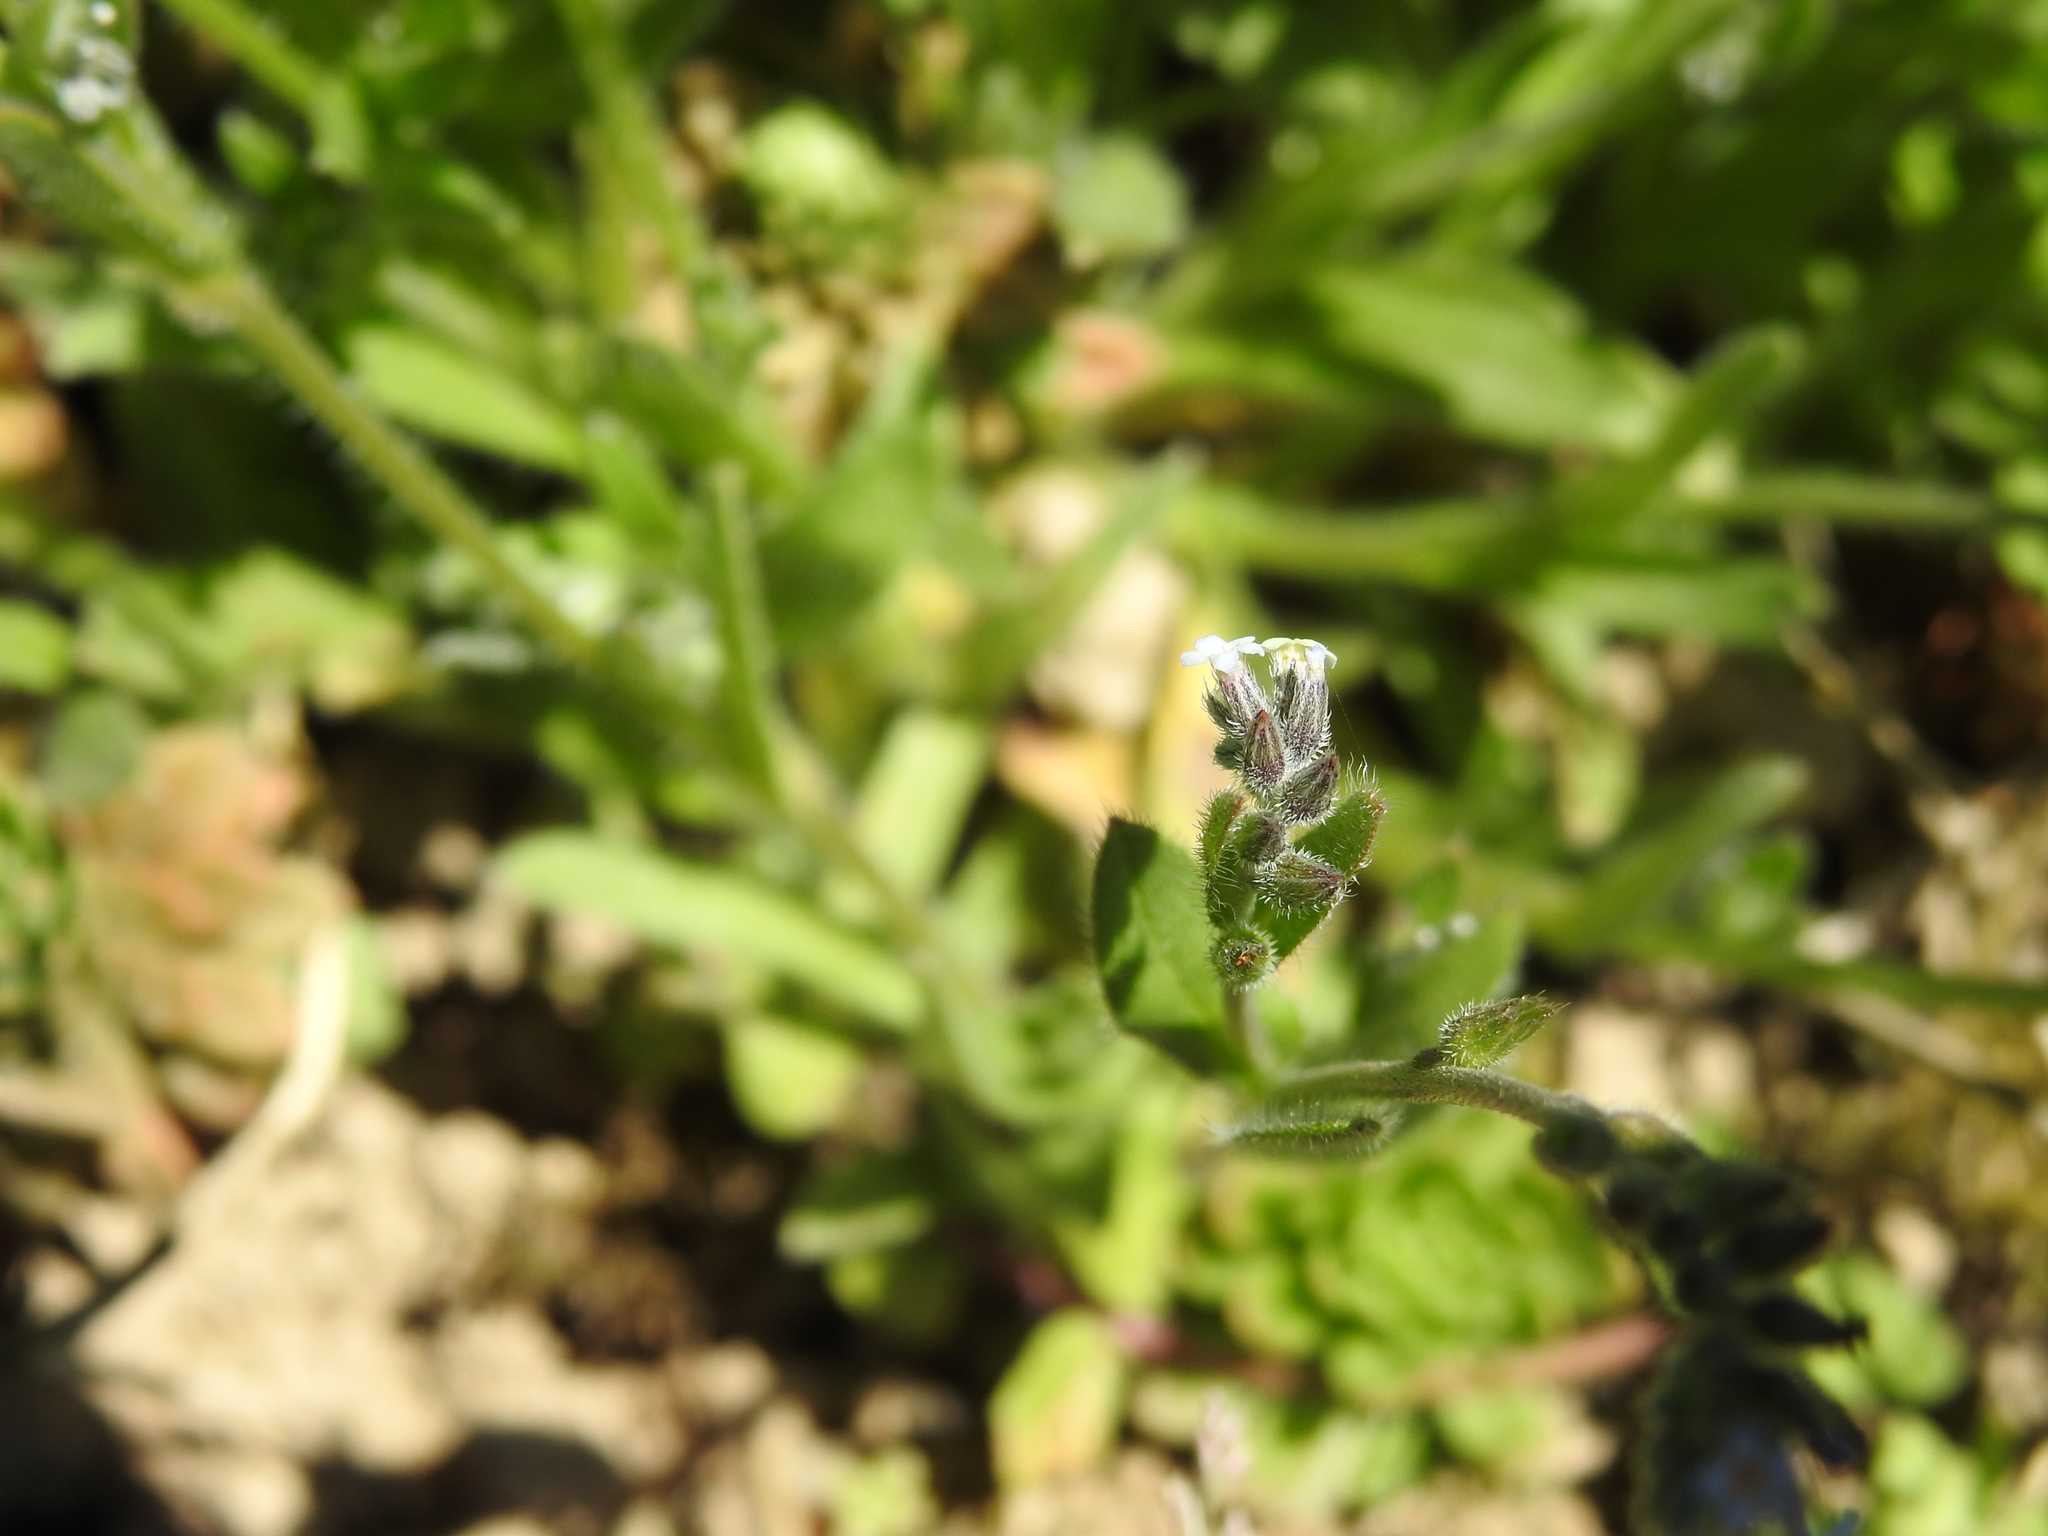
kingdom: Plantae
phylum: Tracheophyta
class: Magnoliopsida
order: Boraginales
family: Boraginaceae
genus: Myosotis
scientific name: Myosotis discolor
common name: Changing forget-me-not
